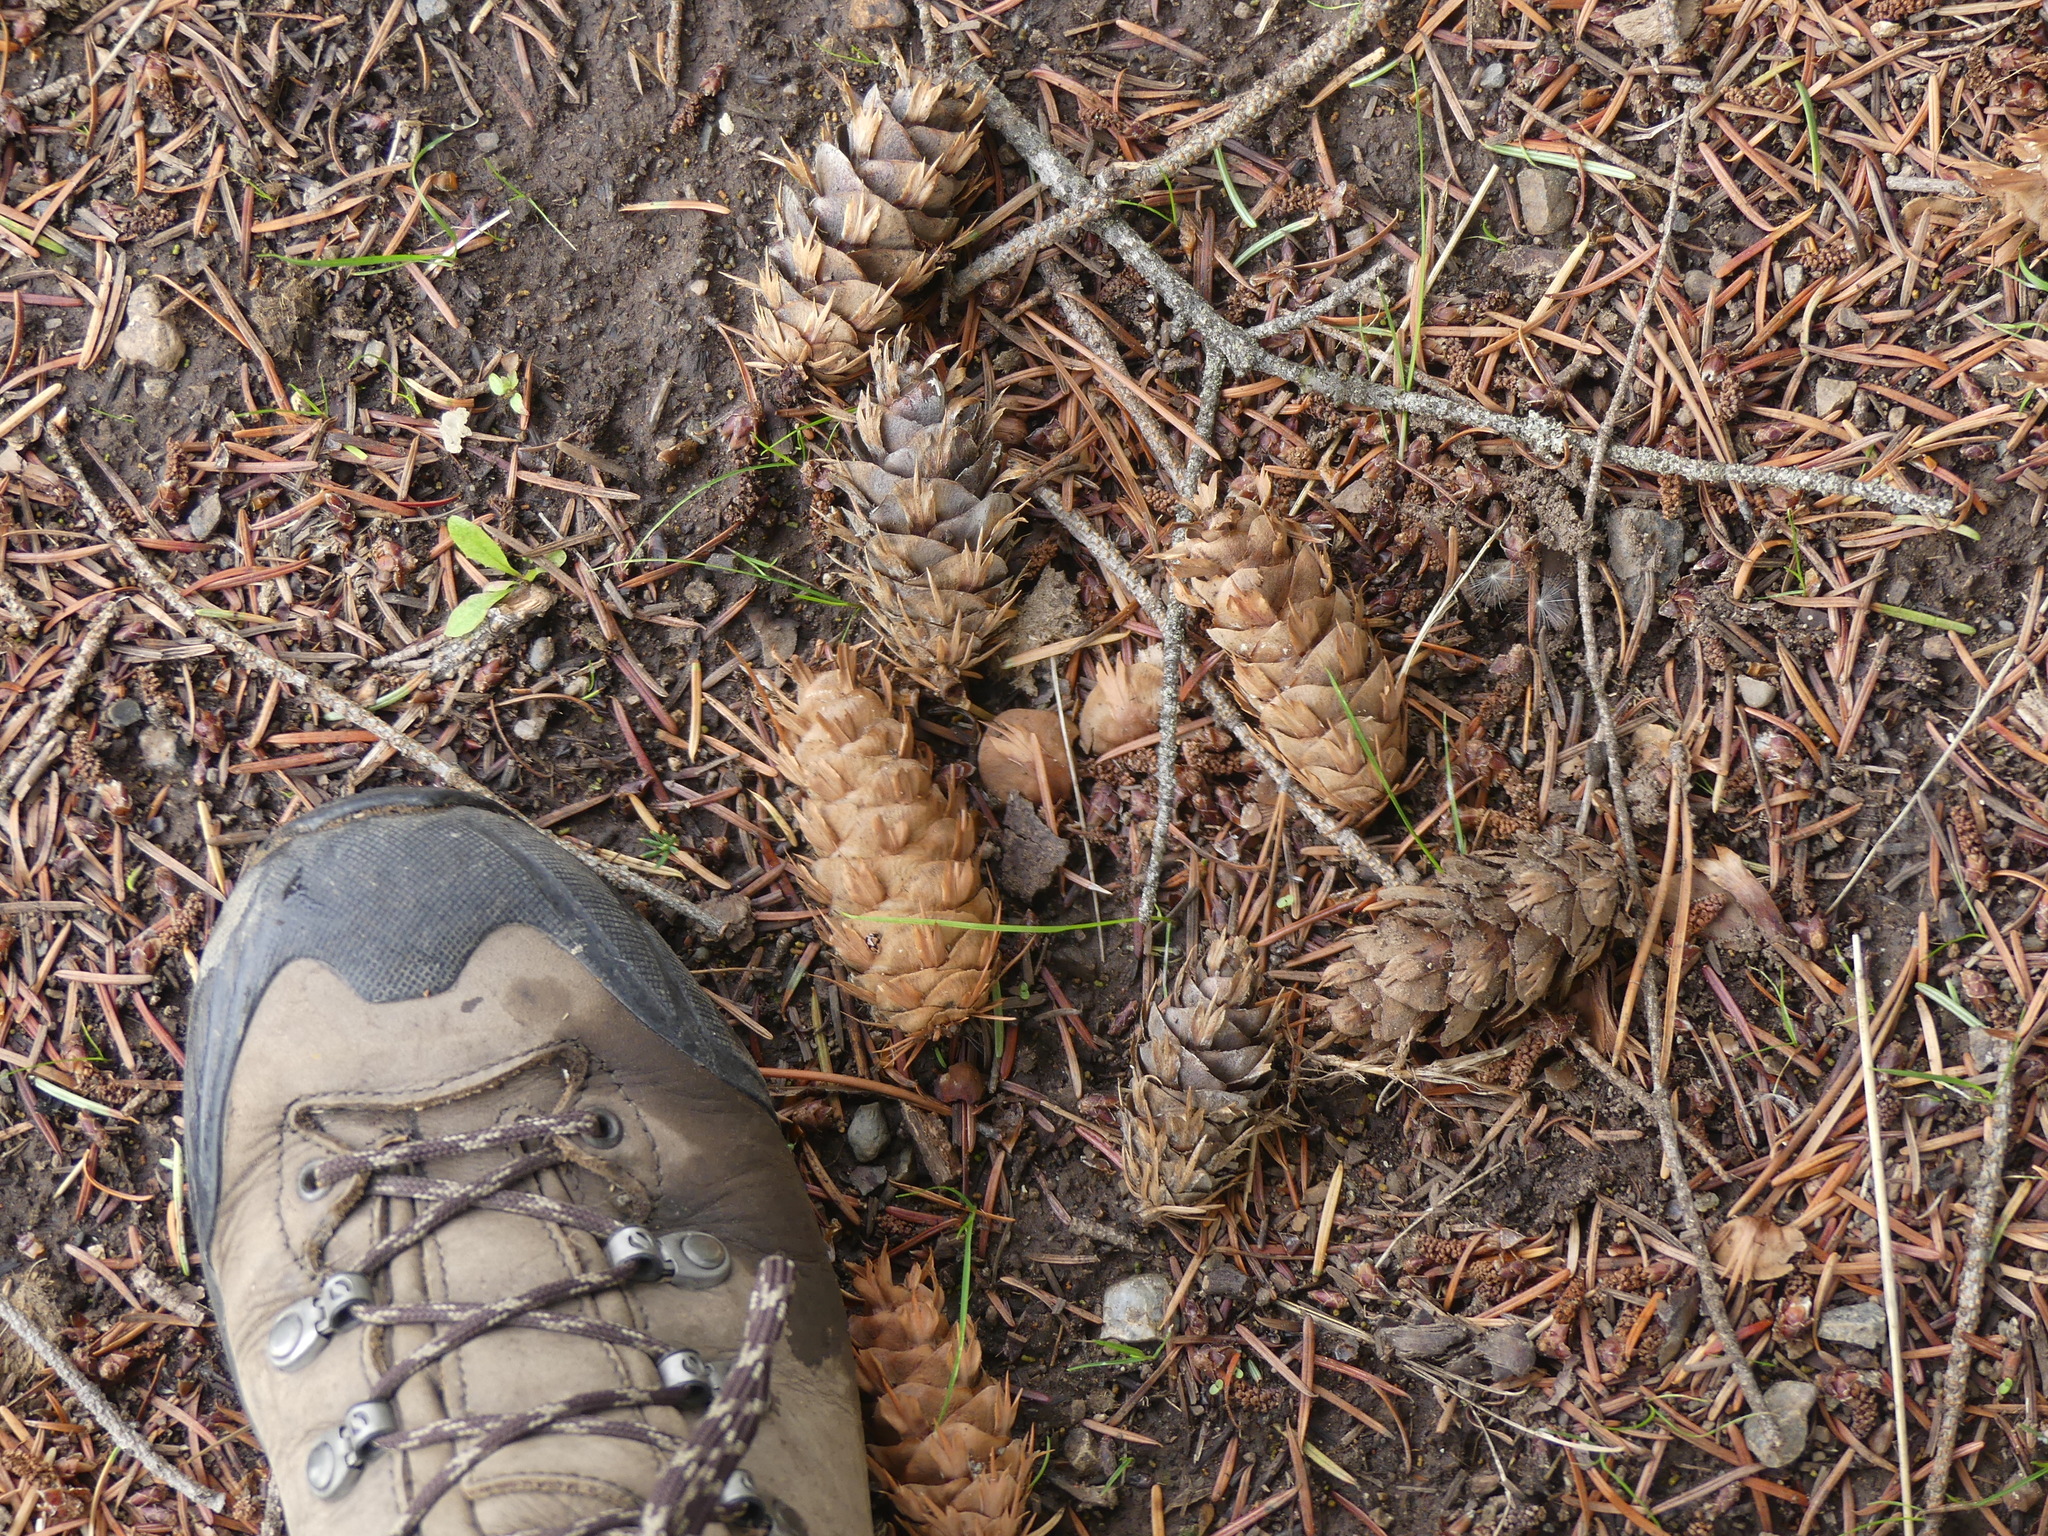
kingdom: Plantae
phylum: Tracheophyta
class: Pinopsida
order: Pinales
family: Pinaceae
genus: Pseudotsuga
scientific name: Pseudotsuga menziesii
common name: Douglas fir
